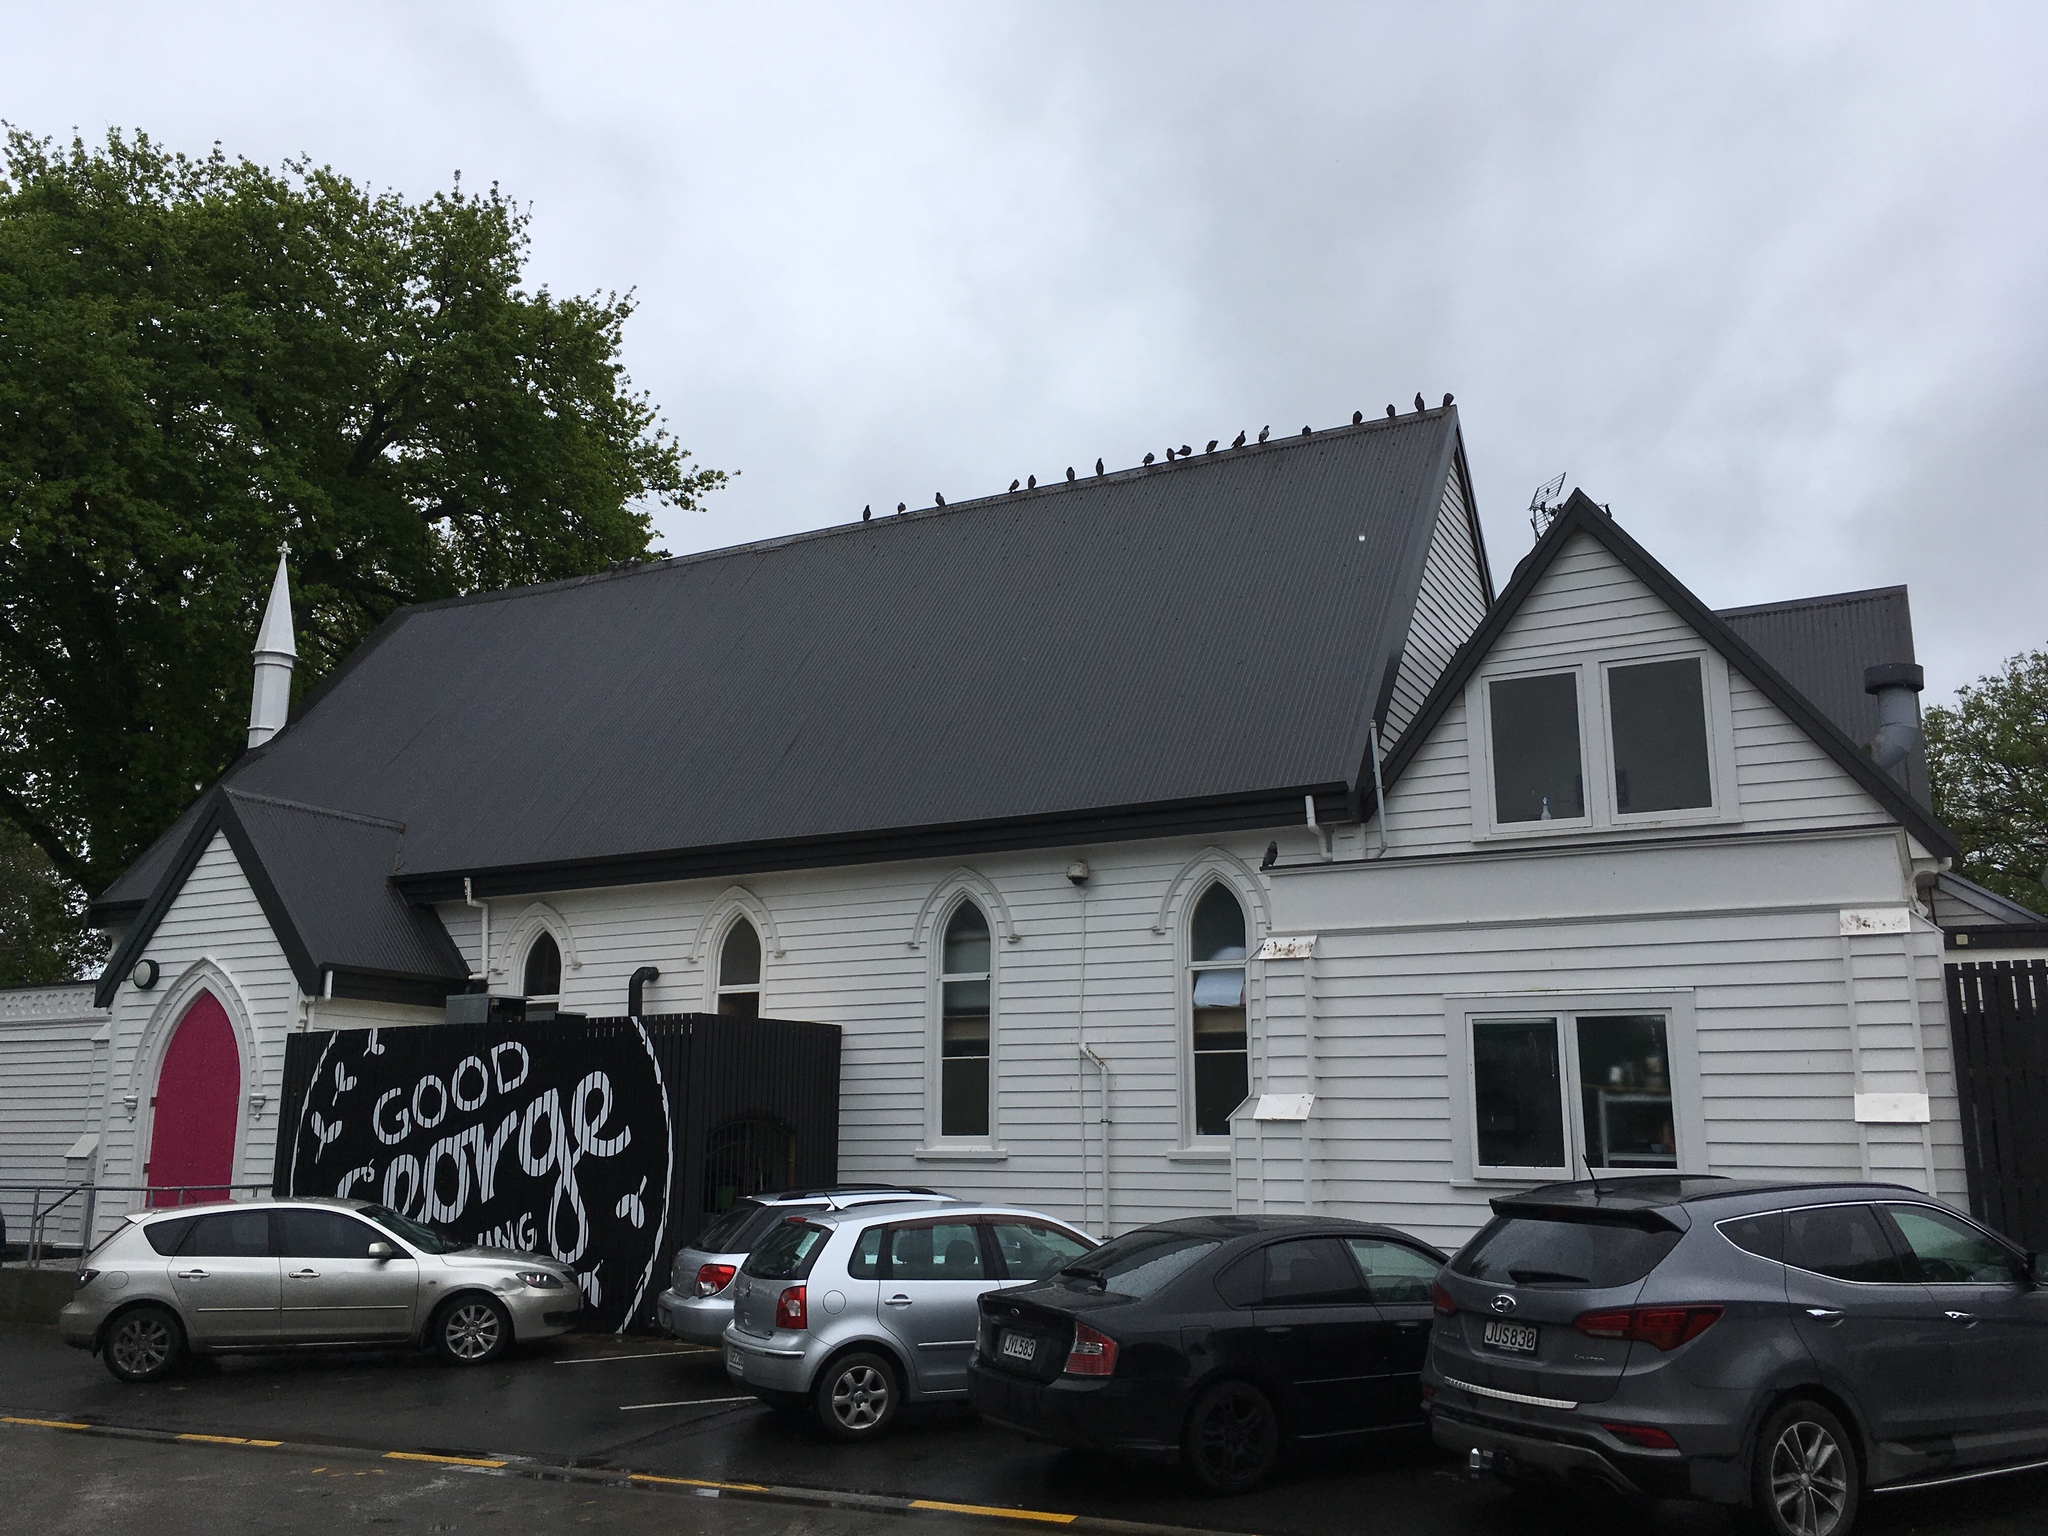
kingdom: Animalia
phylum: Chordata
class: Aves
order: Columbiformes
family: Columbidae
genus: Columba
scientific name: Columba livia
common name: Rock pigeon
